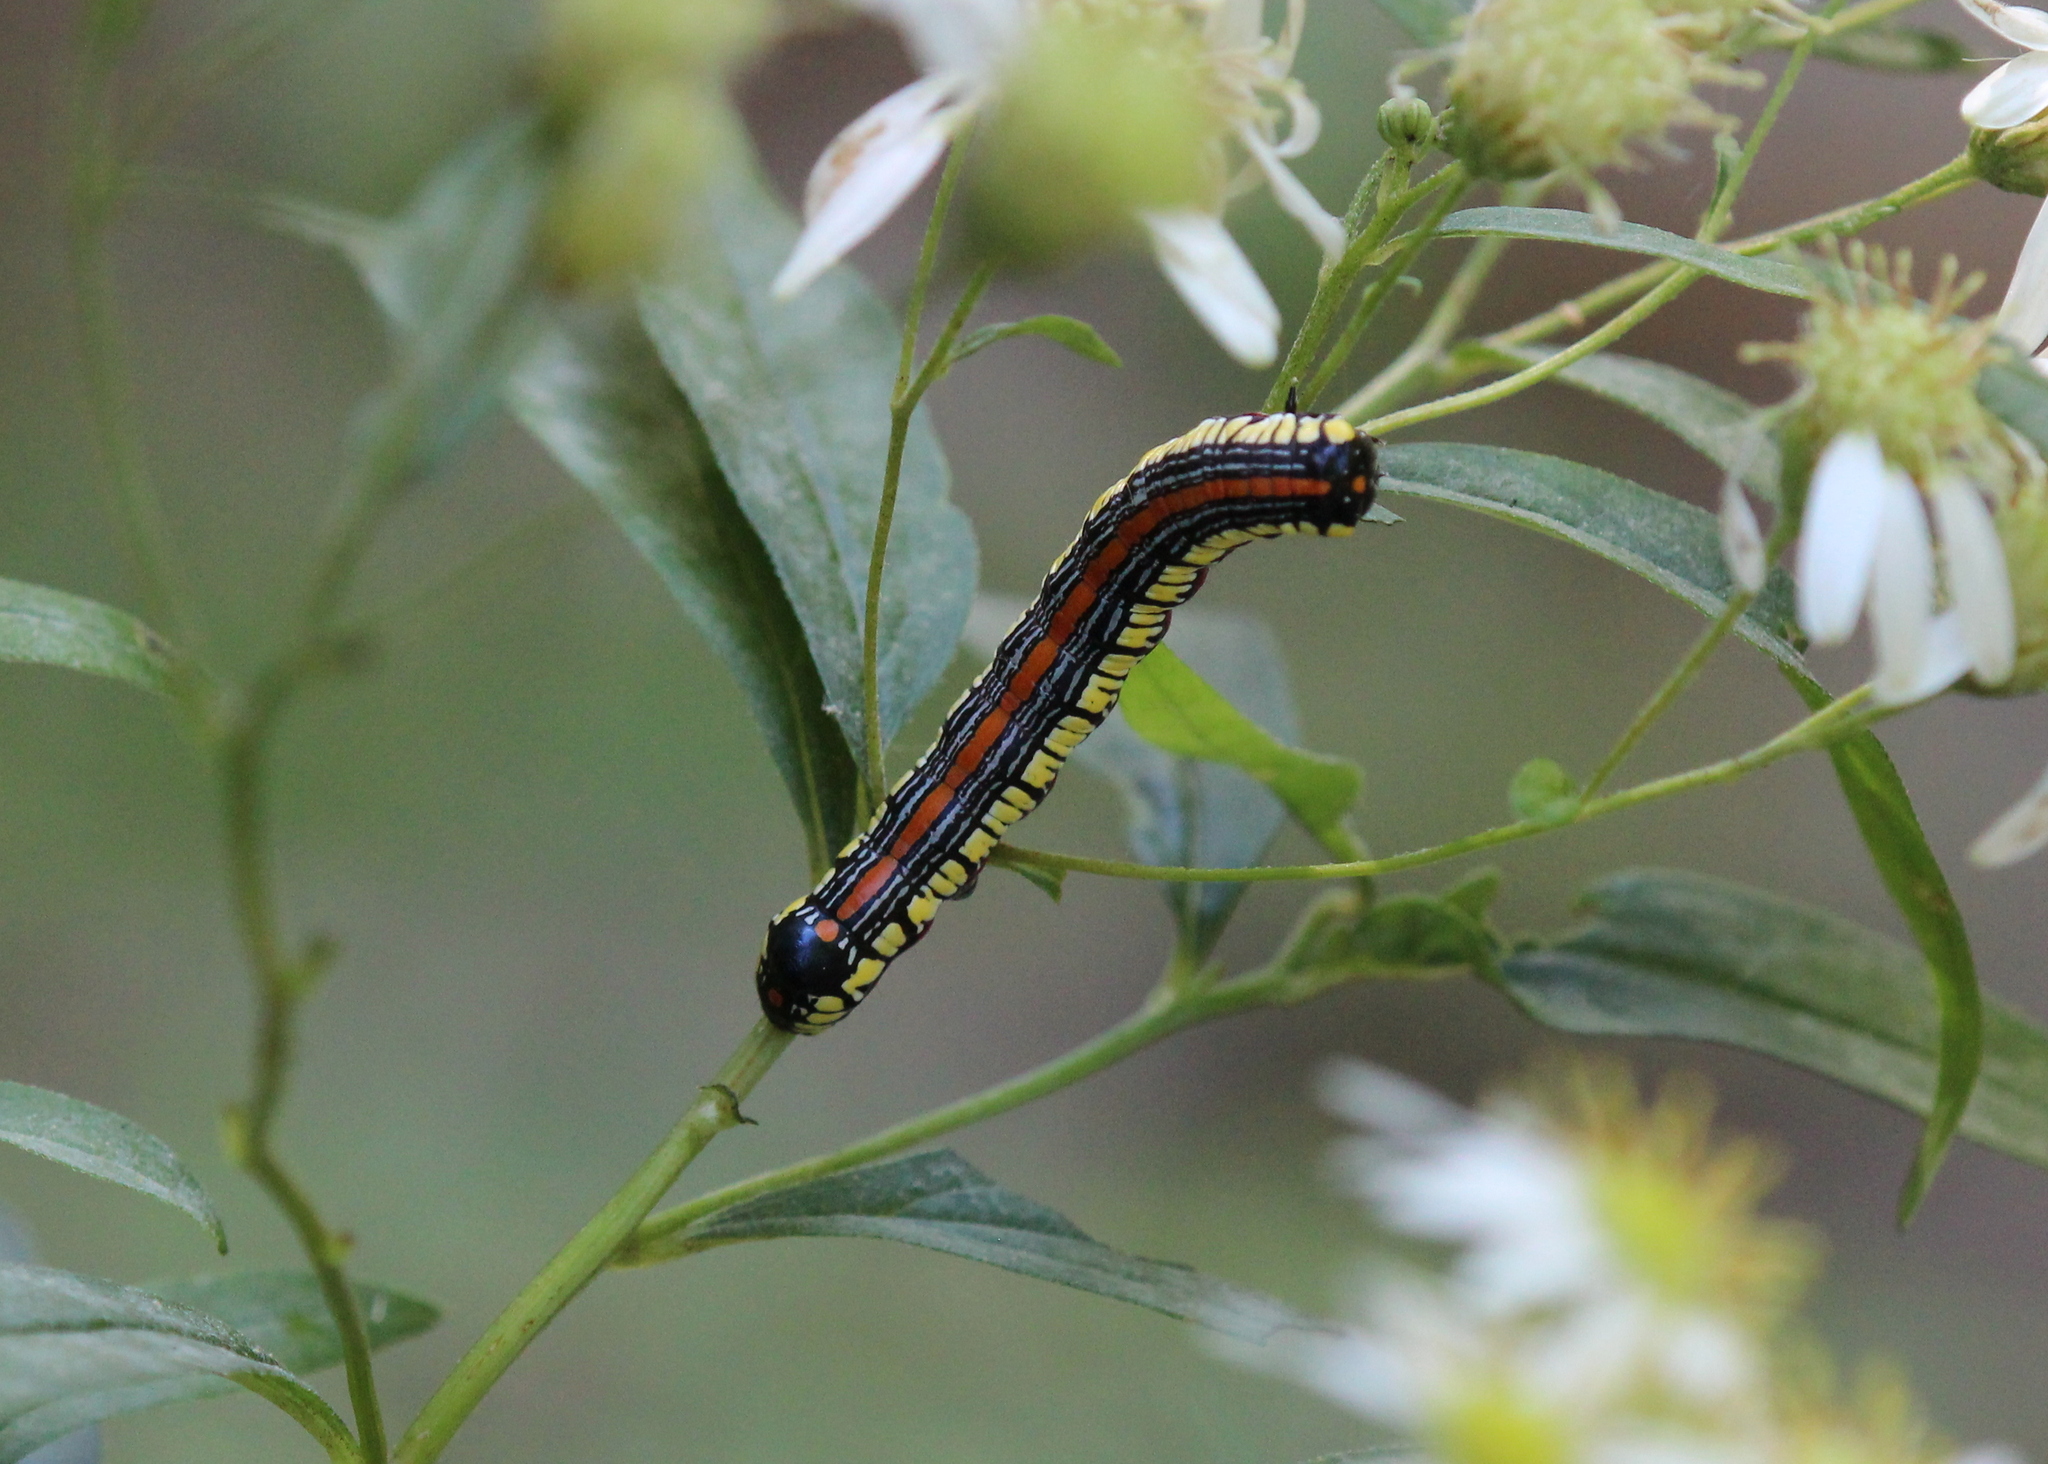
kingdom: Animalia
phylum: Arthropoda
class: Insecta
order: Lepidoptera
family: Noctuidae
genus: Cucullia
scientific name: Cucullia convexipennis
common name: Brown-hooded owlet
